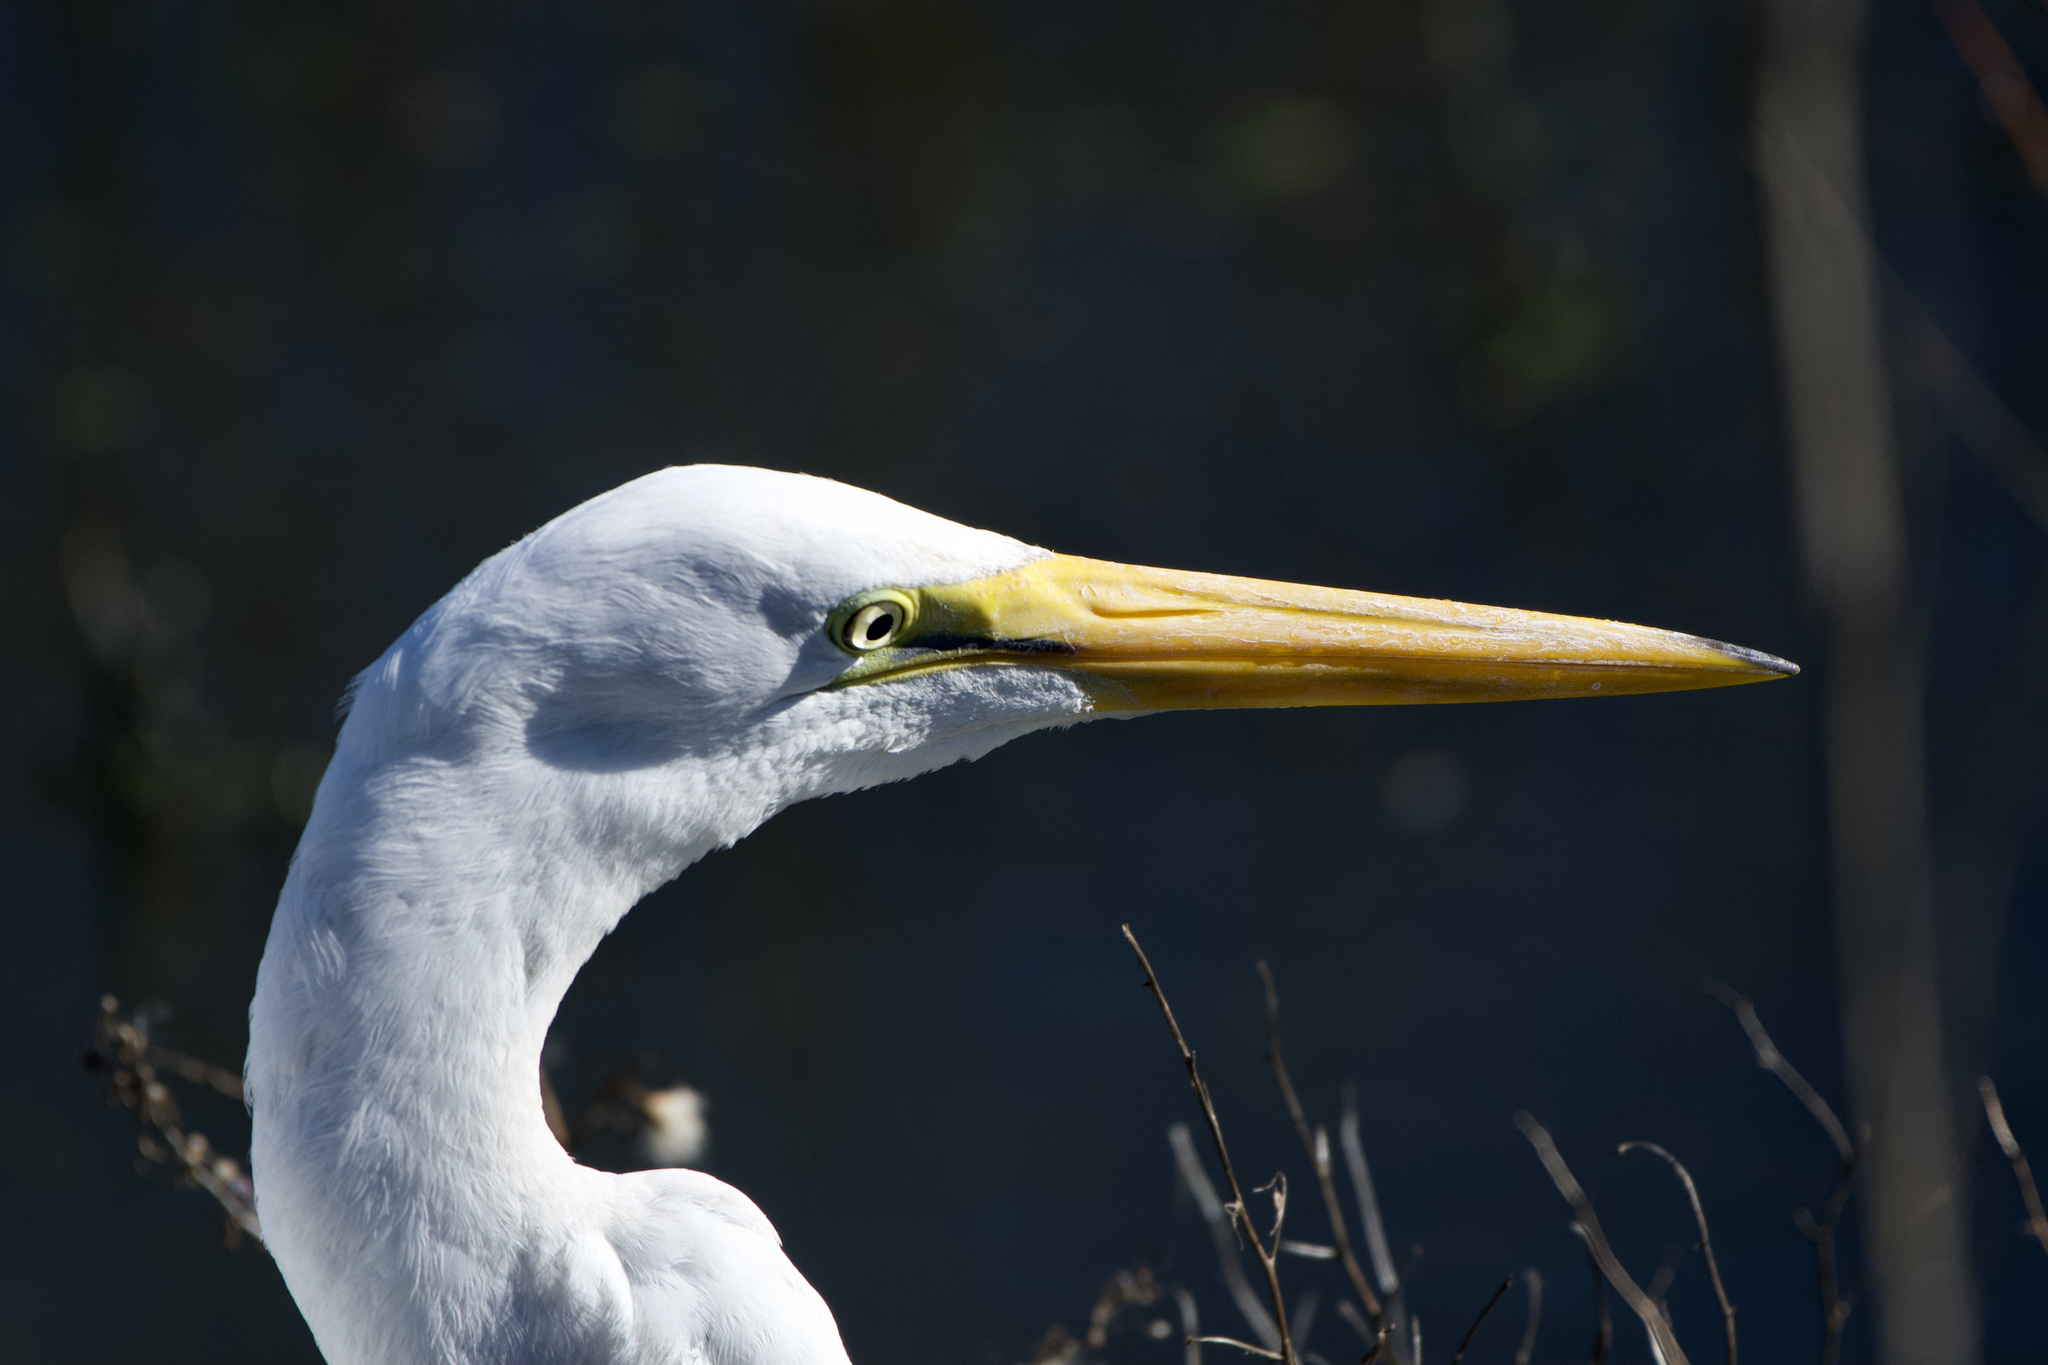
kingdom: Animalia
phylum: Chordata
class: Aves
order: Pelecaniformes
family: Ardeidae
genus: Ardea
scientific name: Ardea alba
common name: Great egret
